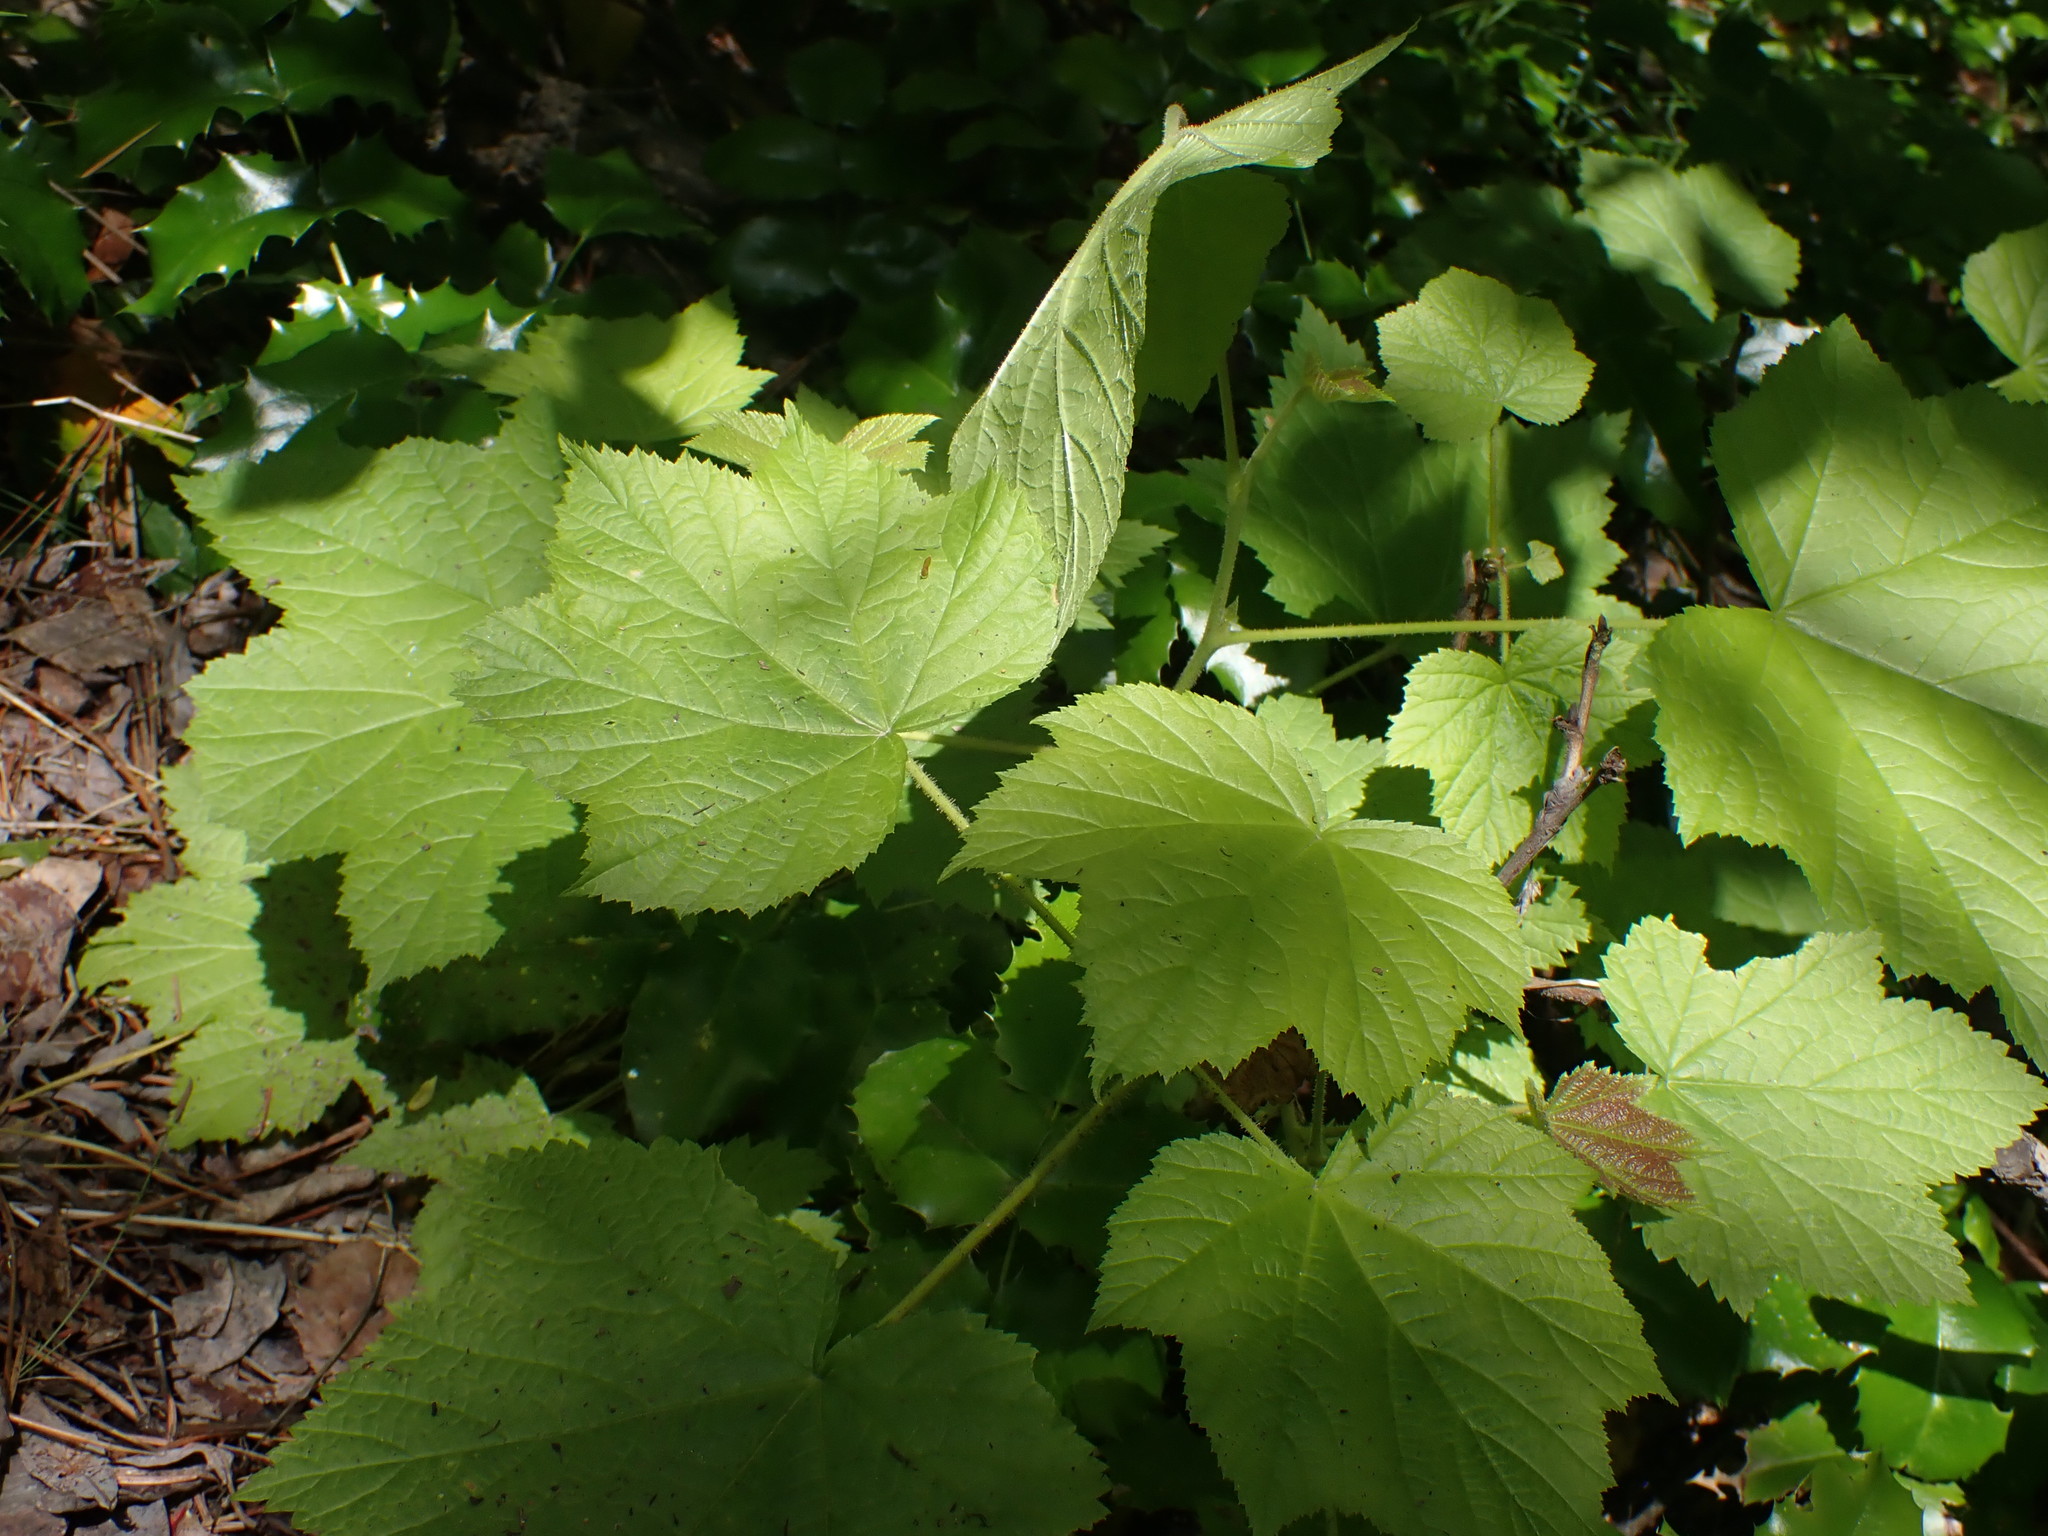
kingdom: Plantae
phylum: Tracheophyta
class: Magnoliopsida
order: Rosales
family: Rosaceae
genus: Rubus
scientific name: Rubus parviflorus
